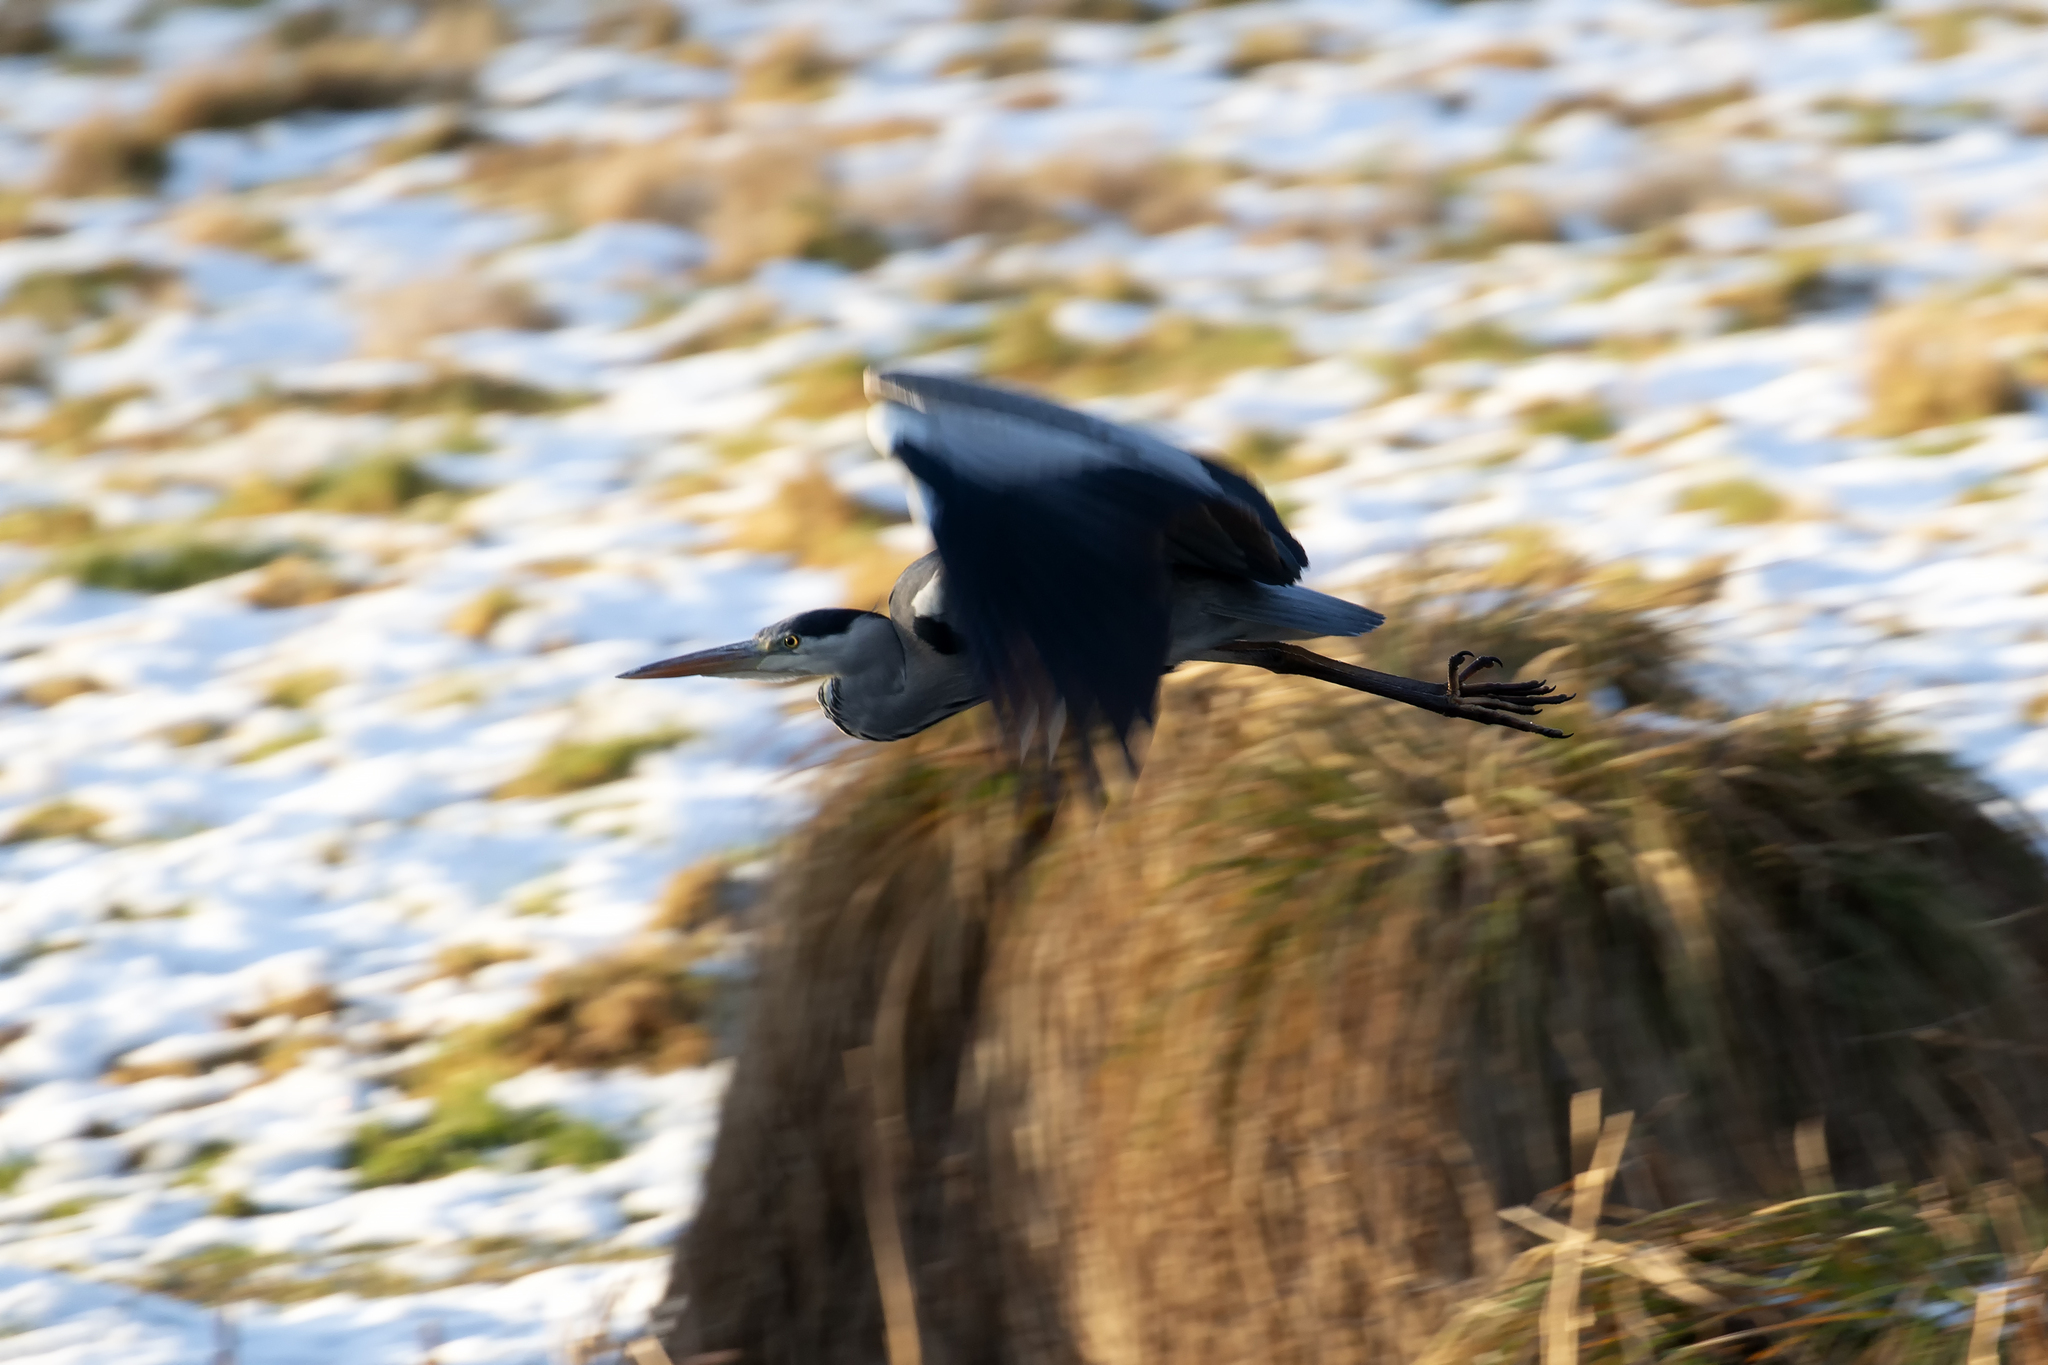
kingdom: Animalia
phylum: Chordata
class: Aves
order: Pelecaniformes
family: Ardeidae
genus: Ardea
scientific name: Ardea cinerea
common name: Grey heron
